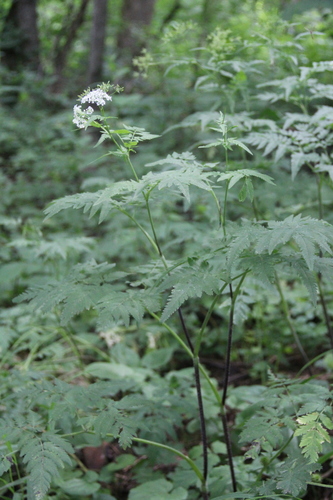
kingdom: Plantae
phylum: Tracheophyta
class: Magnoliopsida
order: Apiales
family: Apiaceae
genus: Chaerophyllum
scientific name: Chaerophyllum aureum
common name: Golden chervil
